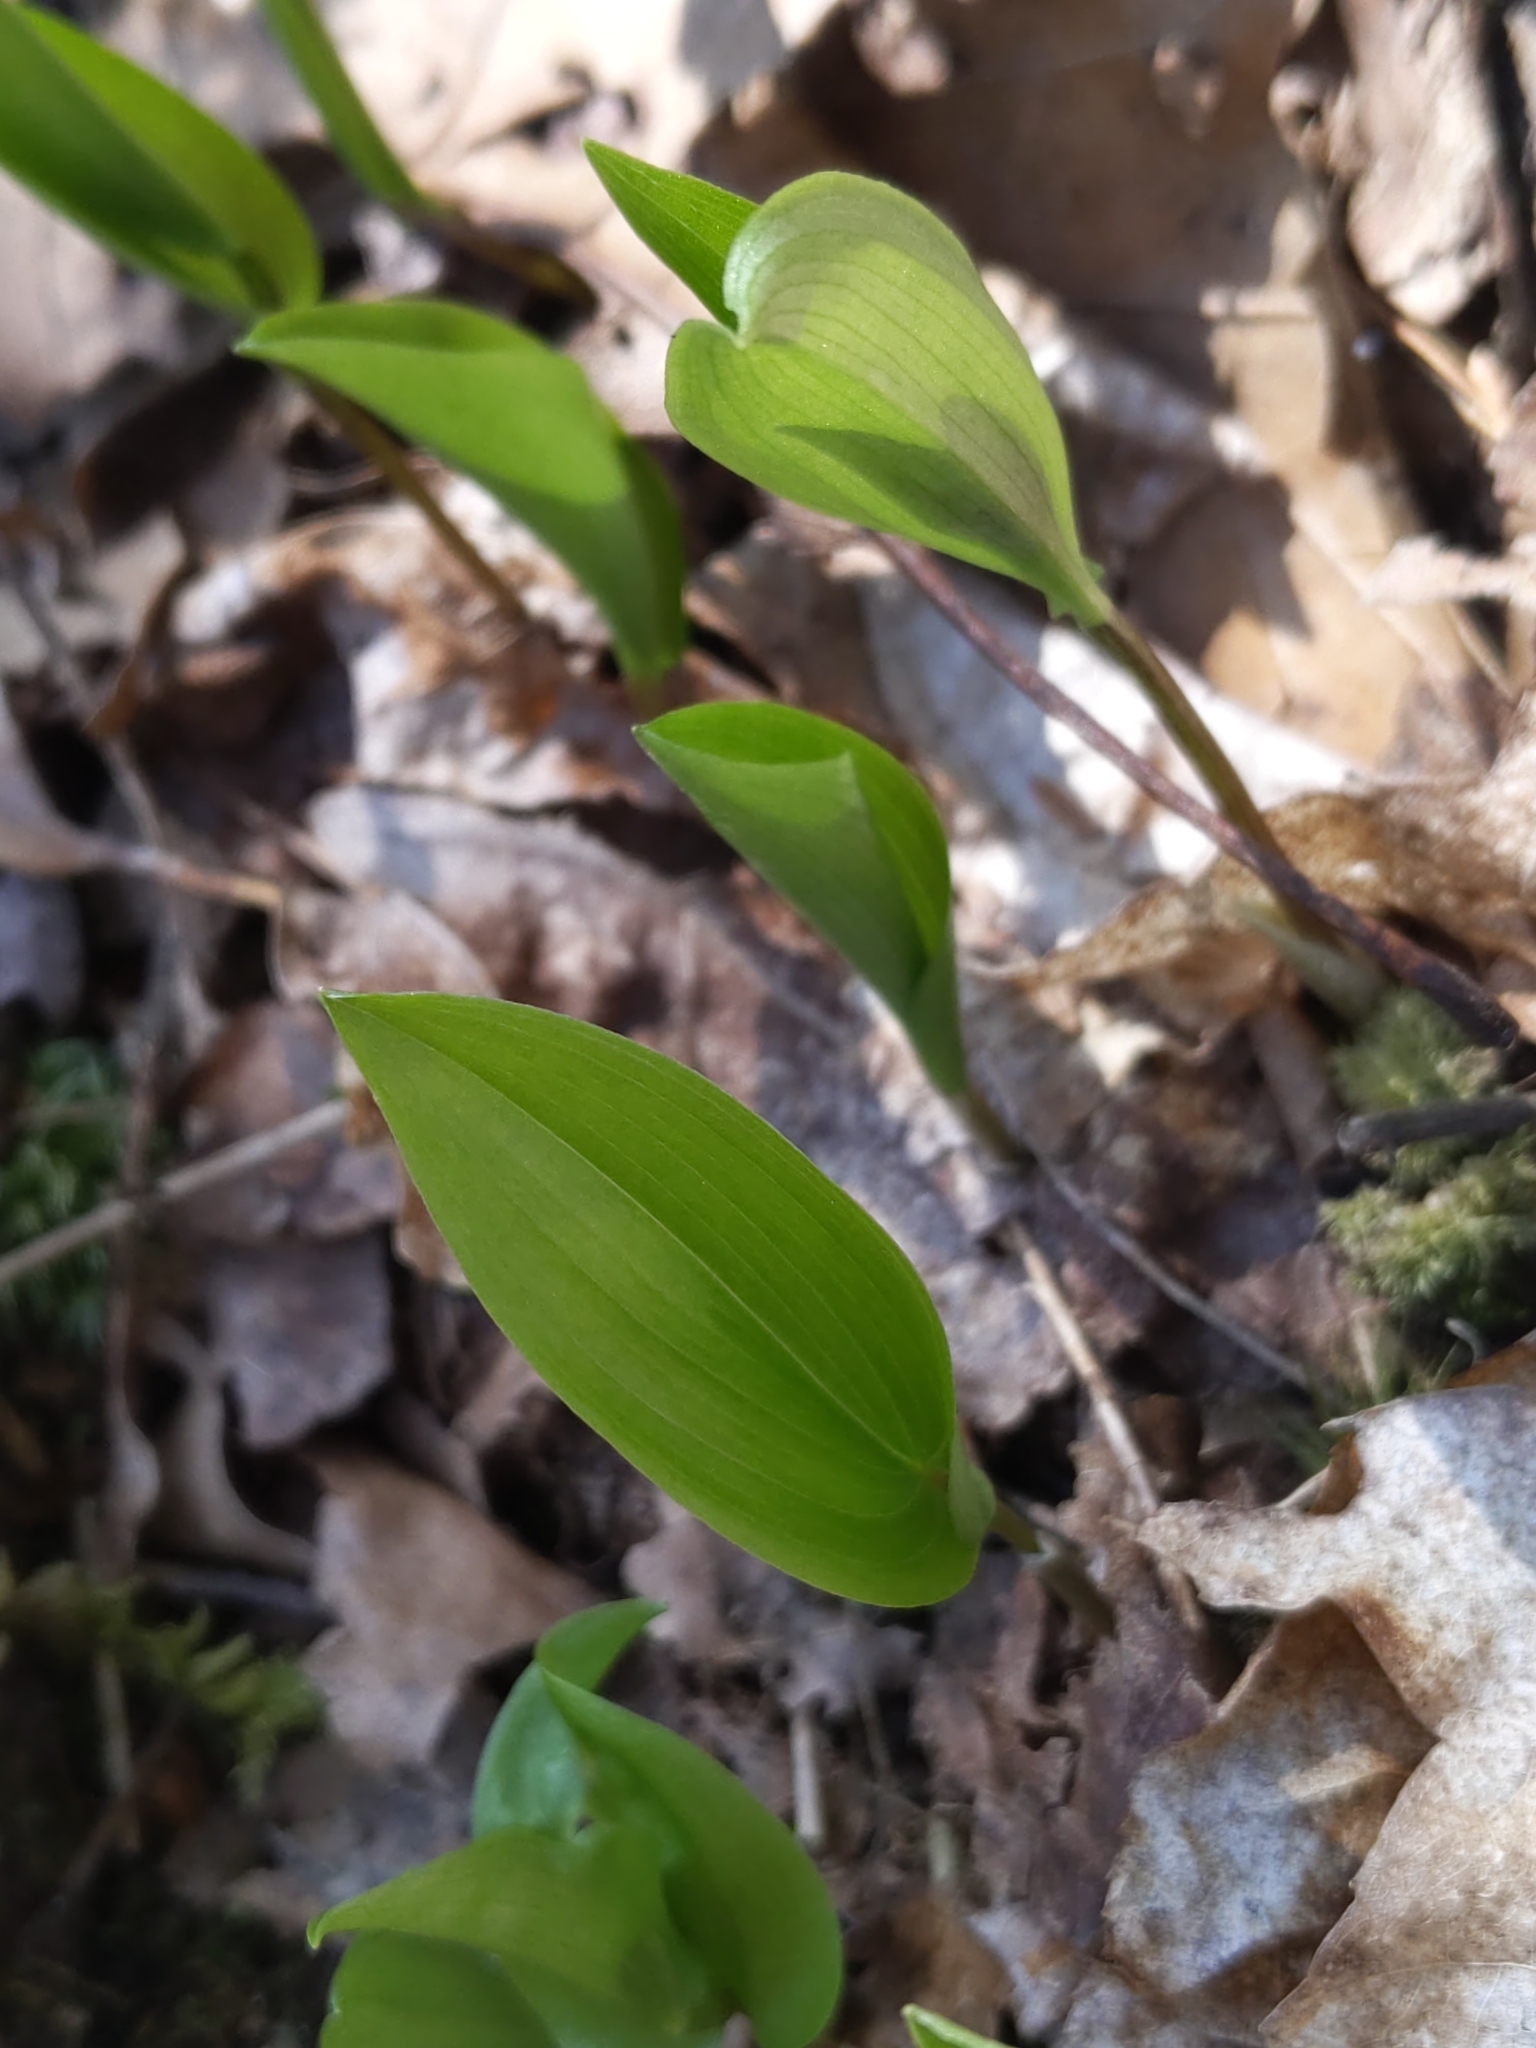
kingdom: Plantae
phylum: Tracheophyta
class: Liliopsida
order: Asparagales
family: Asparagaceae
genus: Maianthemum
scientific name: Maianthemum canadense
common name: False lily-of-the-valley
